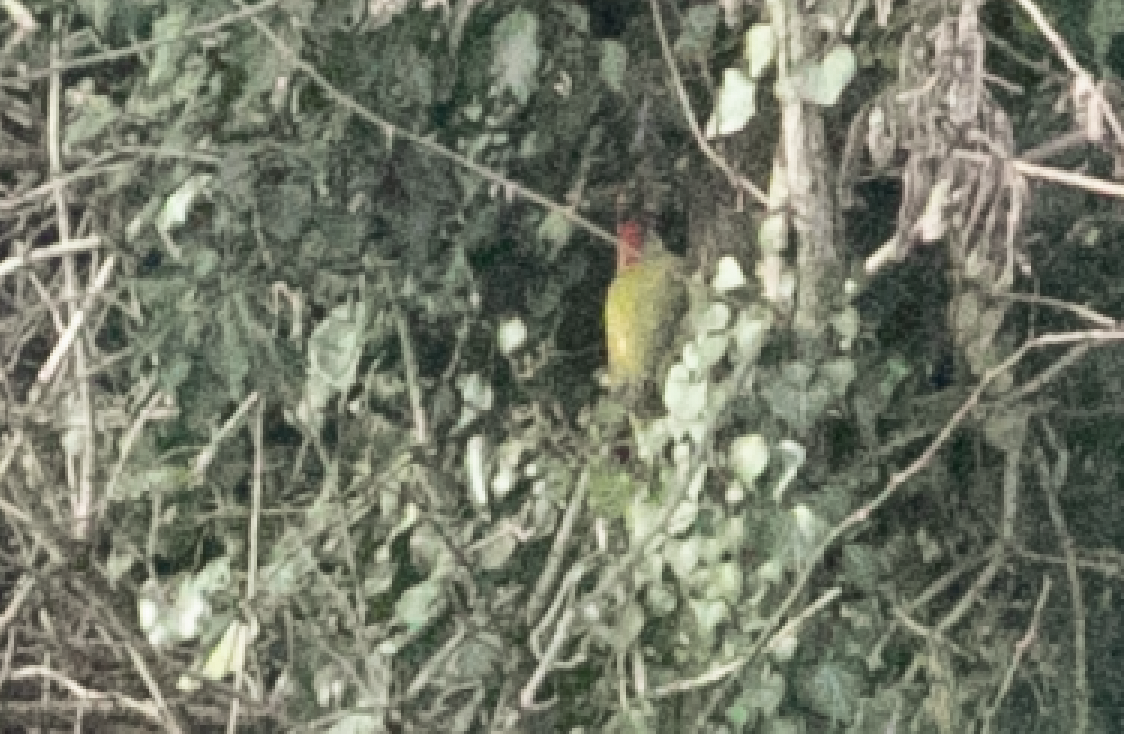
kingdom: Animalia
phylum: Chordata
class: Aves
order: Piciformes
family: Picidae
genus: Picus
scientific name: Picus viridis
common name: European green woodpecker
